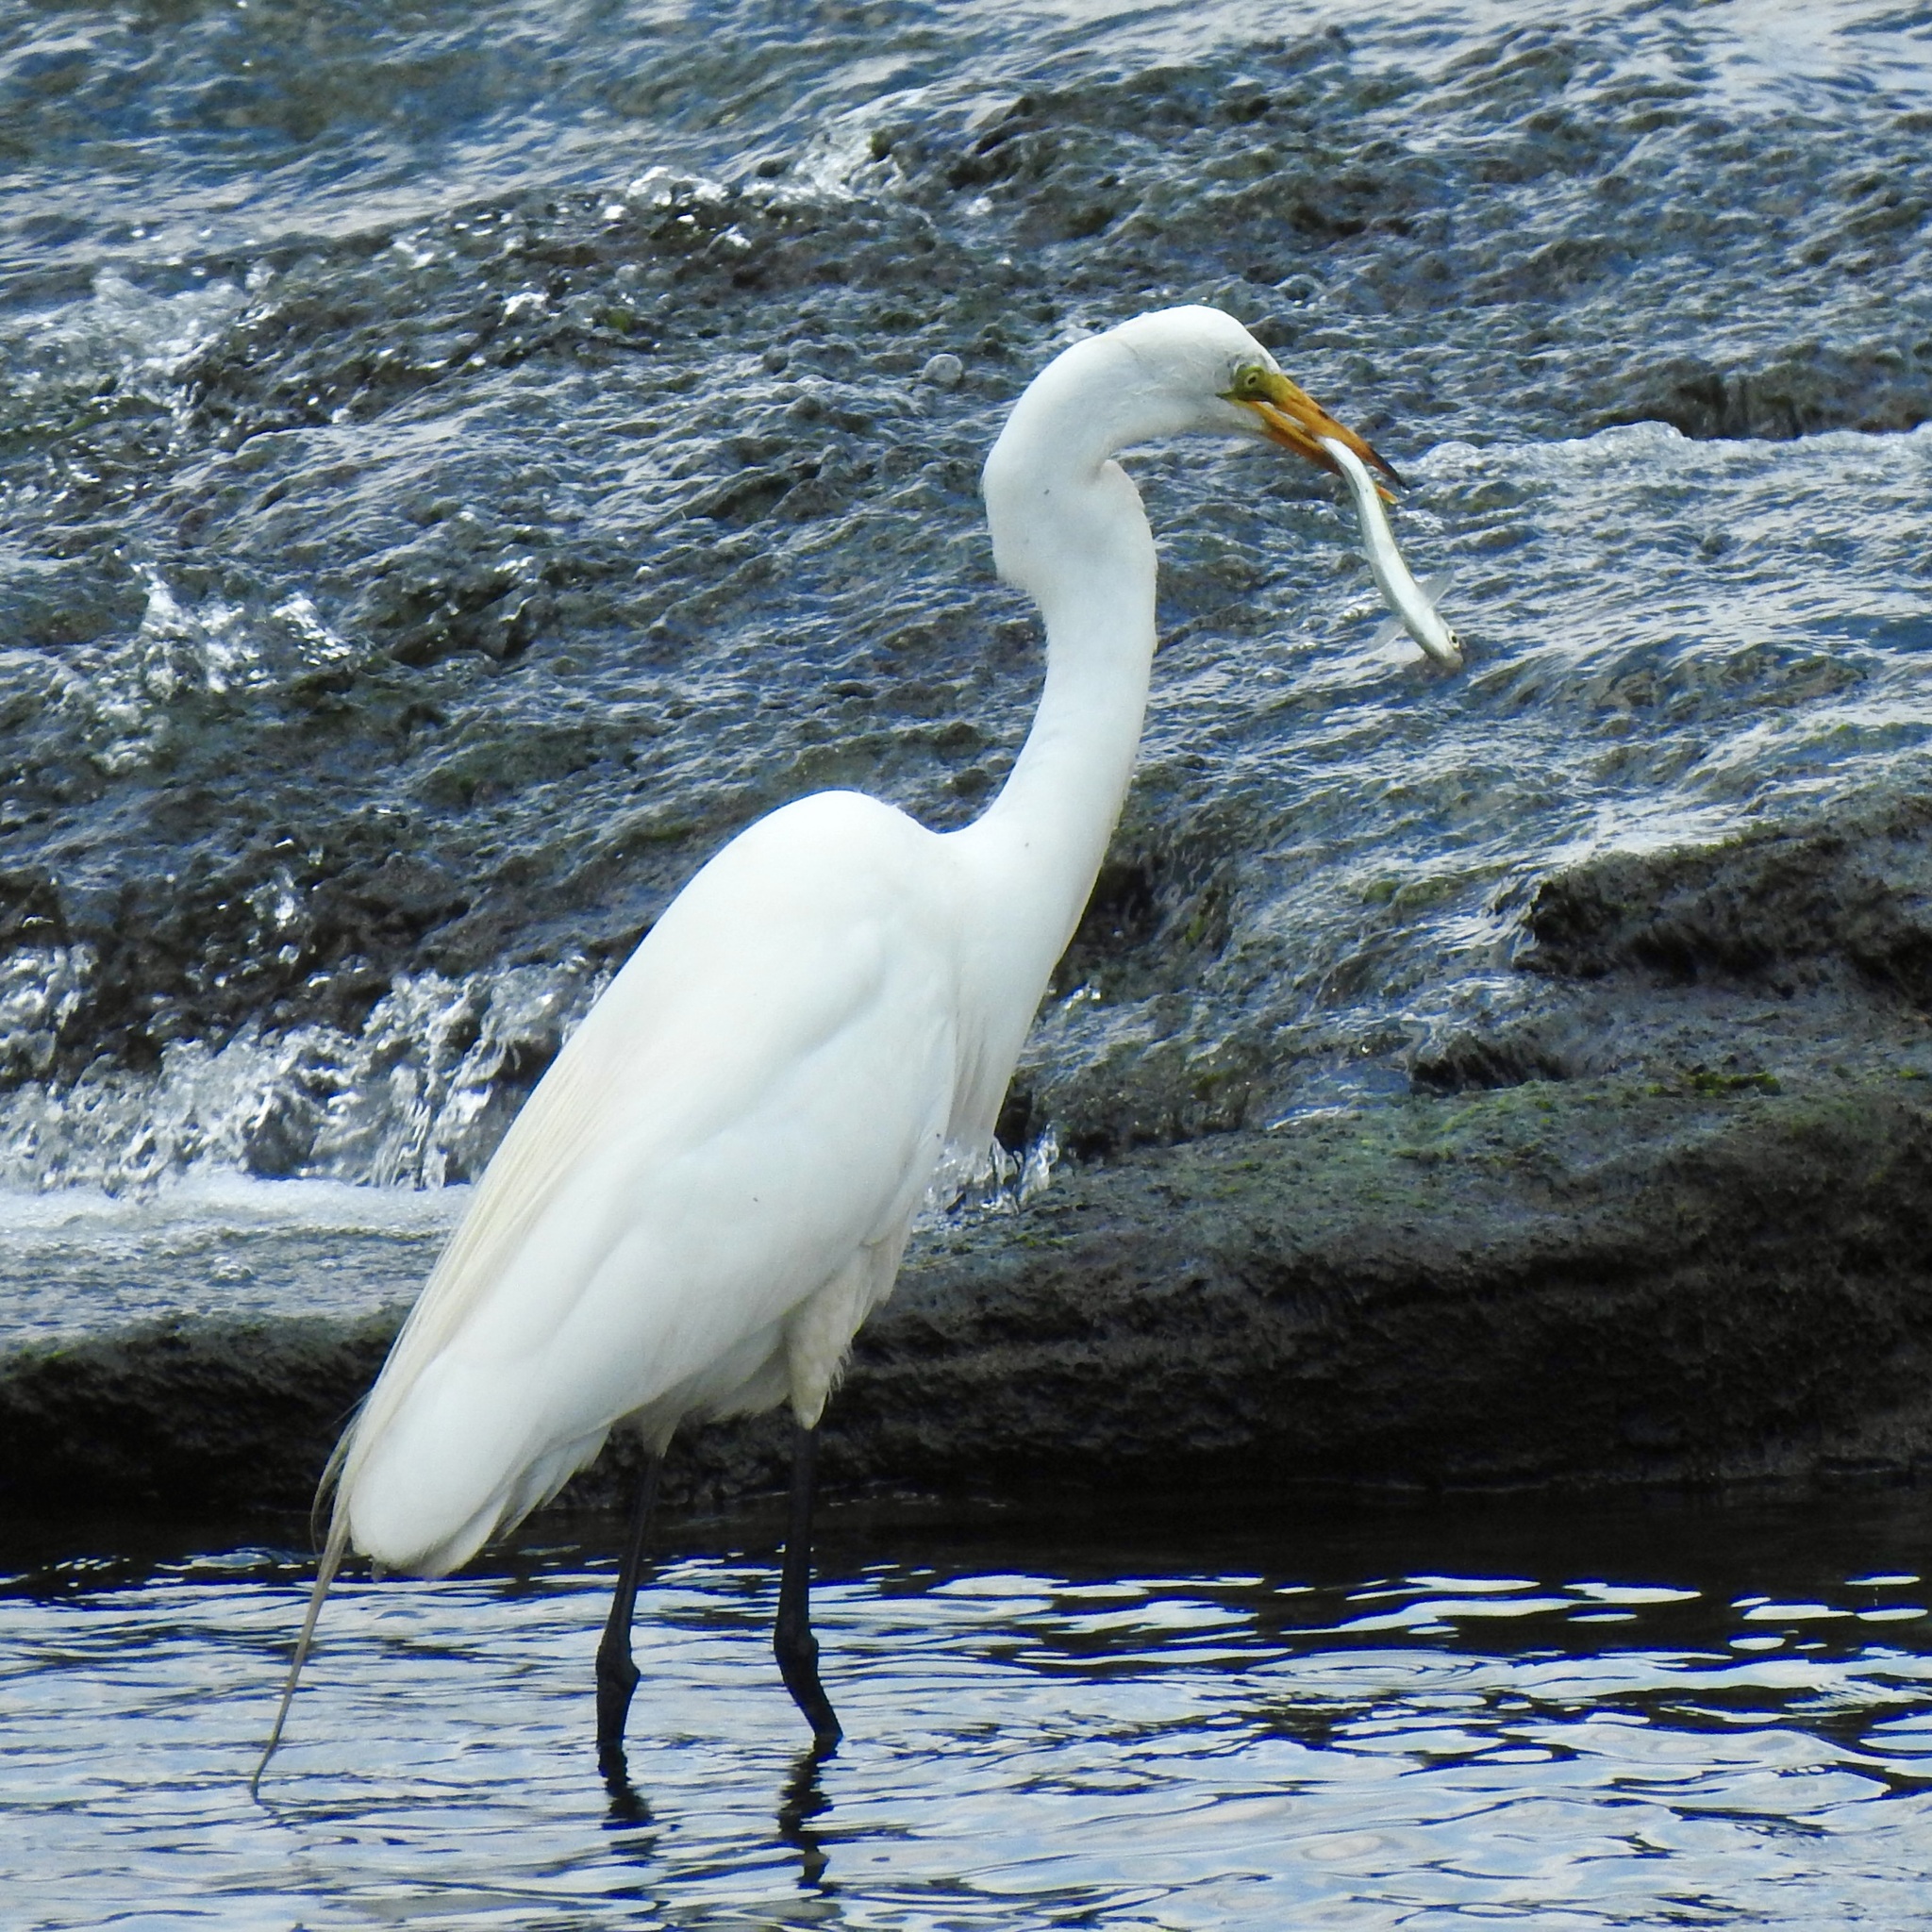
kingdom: Animalia
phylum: Chordata
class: Aves
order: Pelecaniformes
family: Ardeidae
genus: Ardea
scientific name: Ardea alba
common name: Great egret
